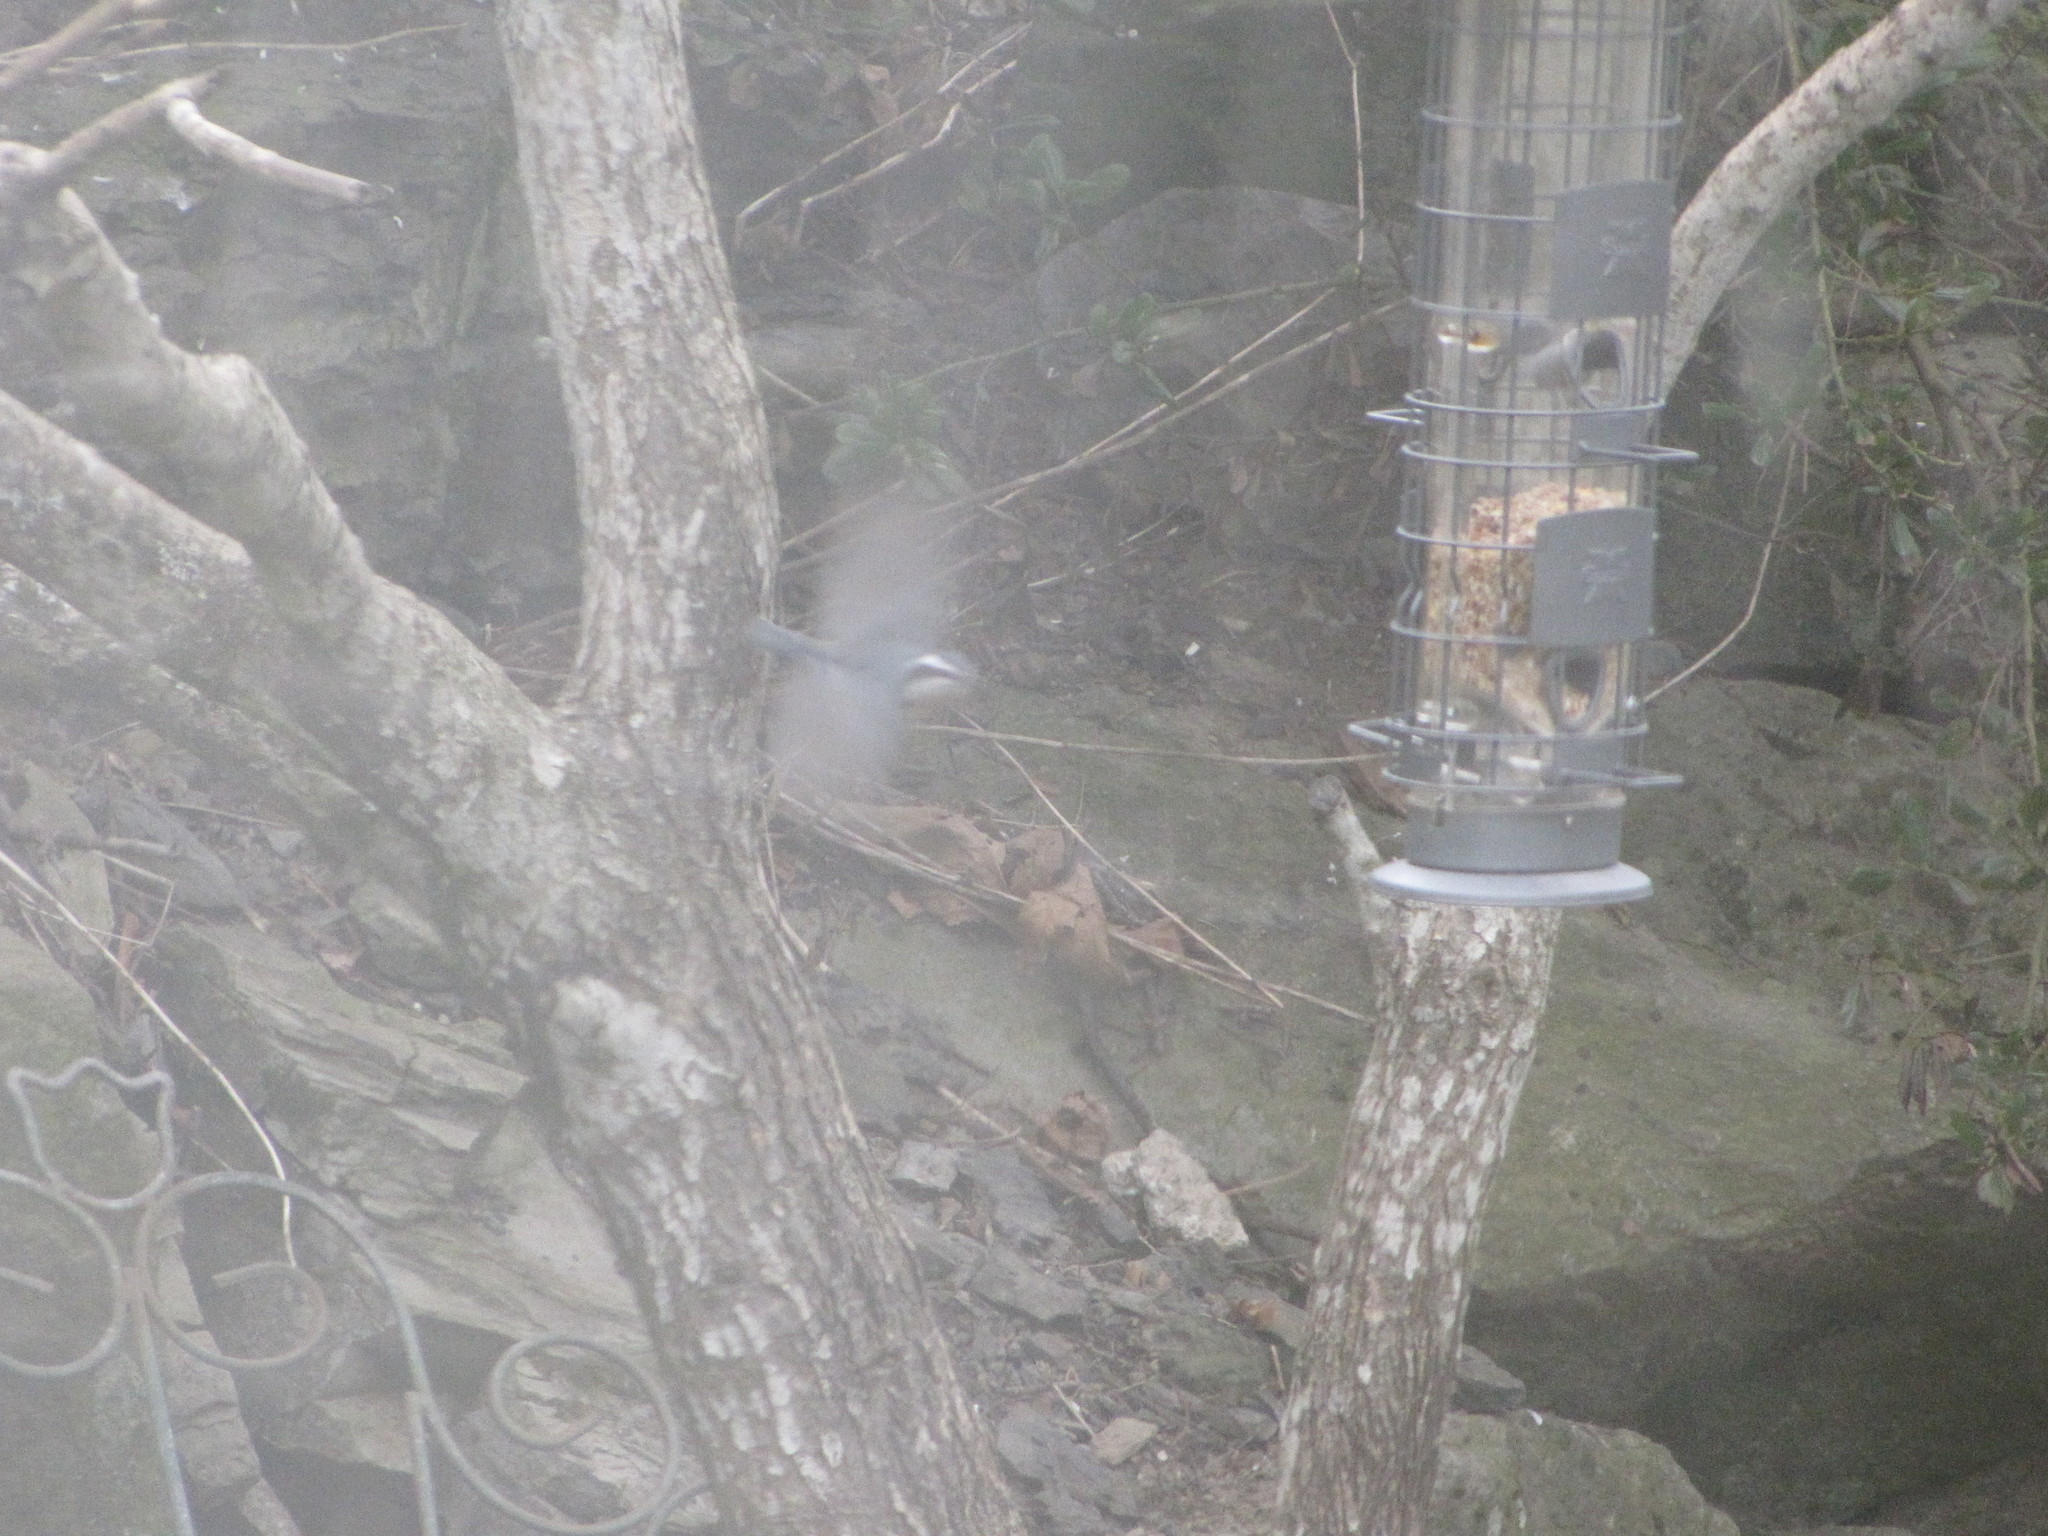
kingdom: Animalia
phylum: Chordata
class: Aves
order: Passeriformes
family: Sittidae
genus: Sitta
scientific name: Sitta canadensis
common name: Red-breasted nuthatch
